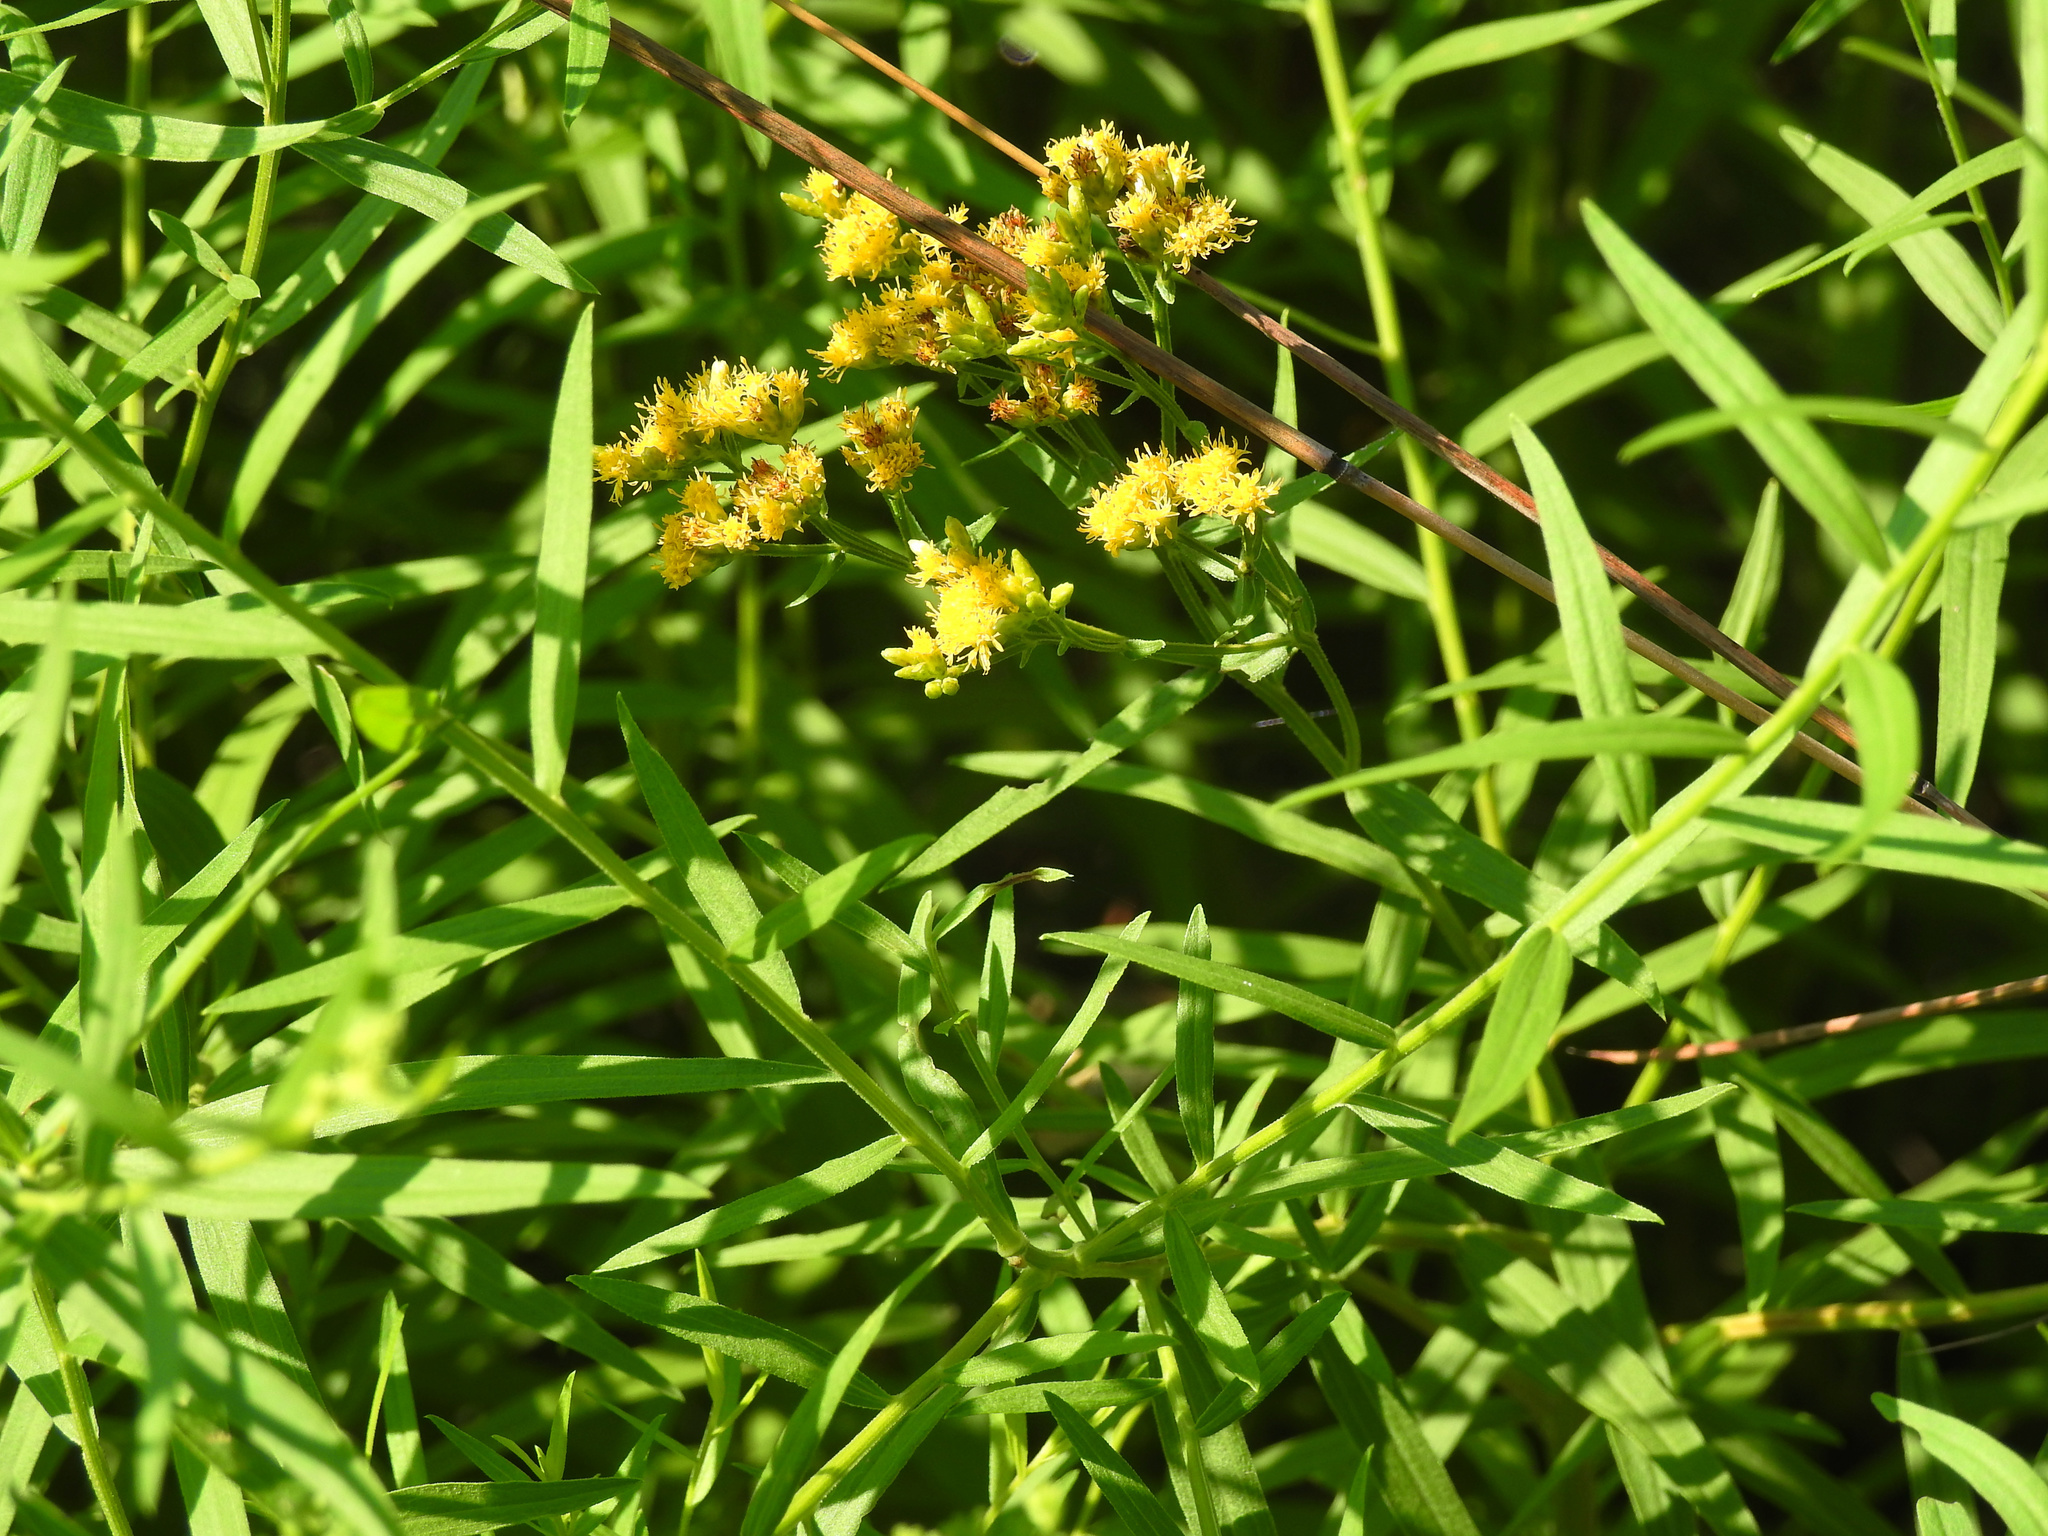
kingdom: Plantae
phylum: Tracheophyta
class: Magnoliopsida
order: Asterales
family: Asteraceae
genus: Euthamia
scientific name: Euthamia graminifolia
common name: Common goldentop
